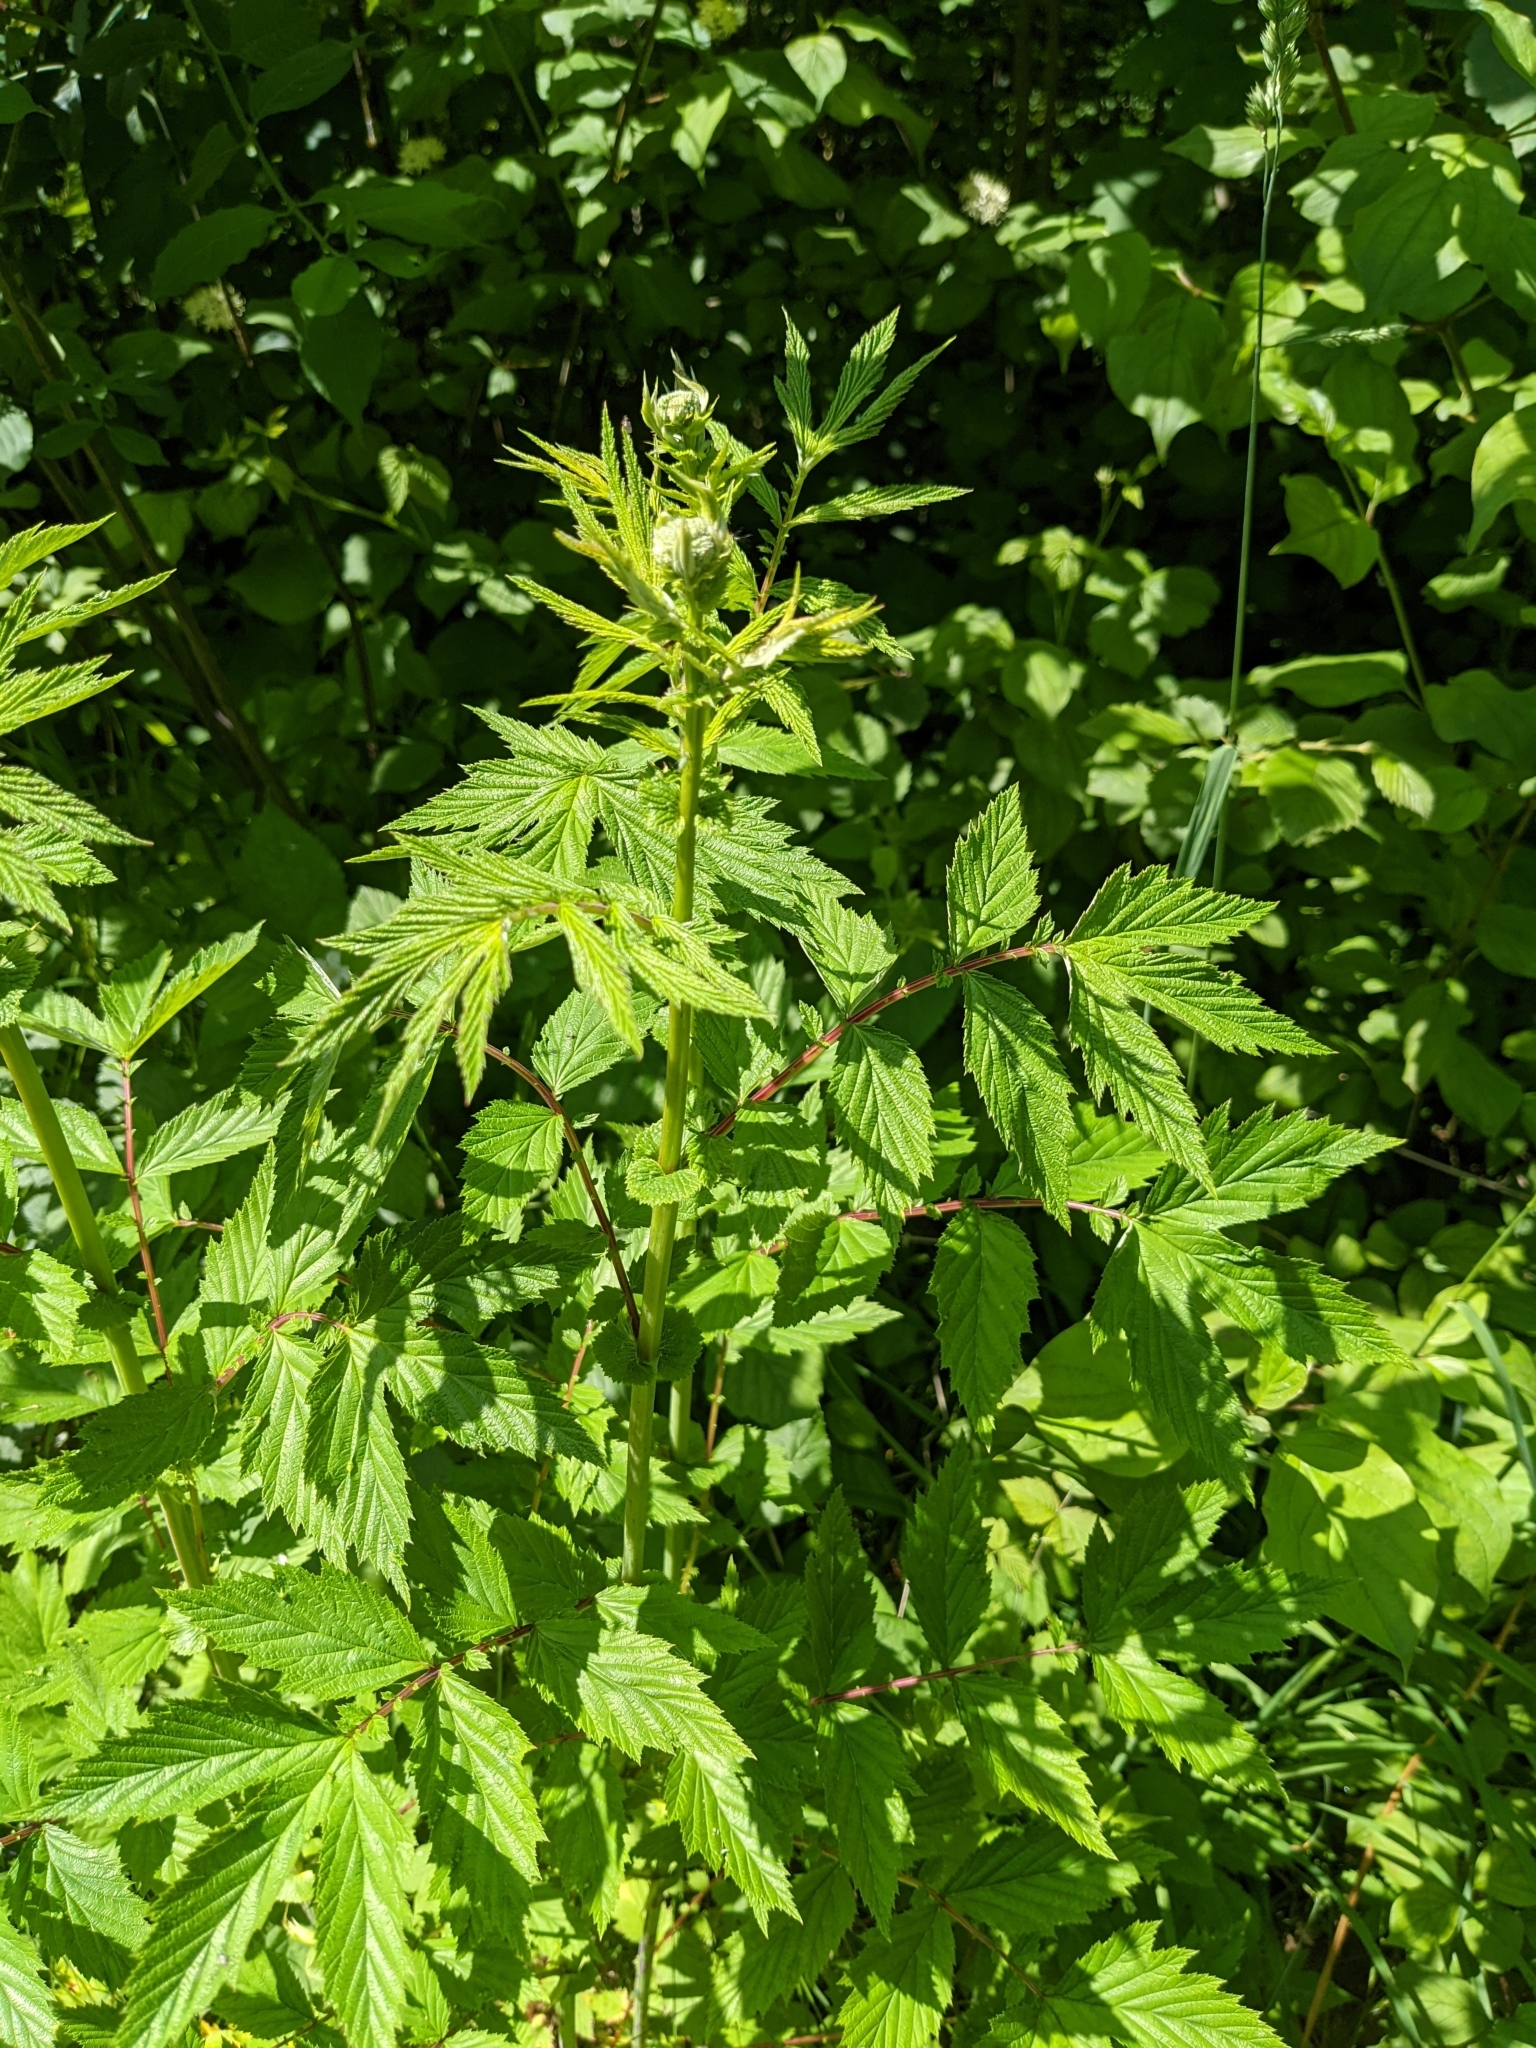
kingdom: Plantae
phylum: Tracheophyta
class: Magnoliopsida
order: Rosales
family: Rosaceae
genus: Filipendula
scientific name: Filipendula ulmaria
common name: Meadowsweet
